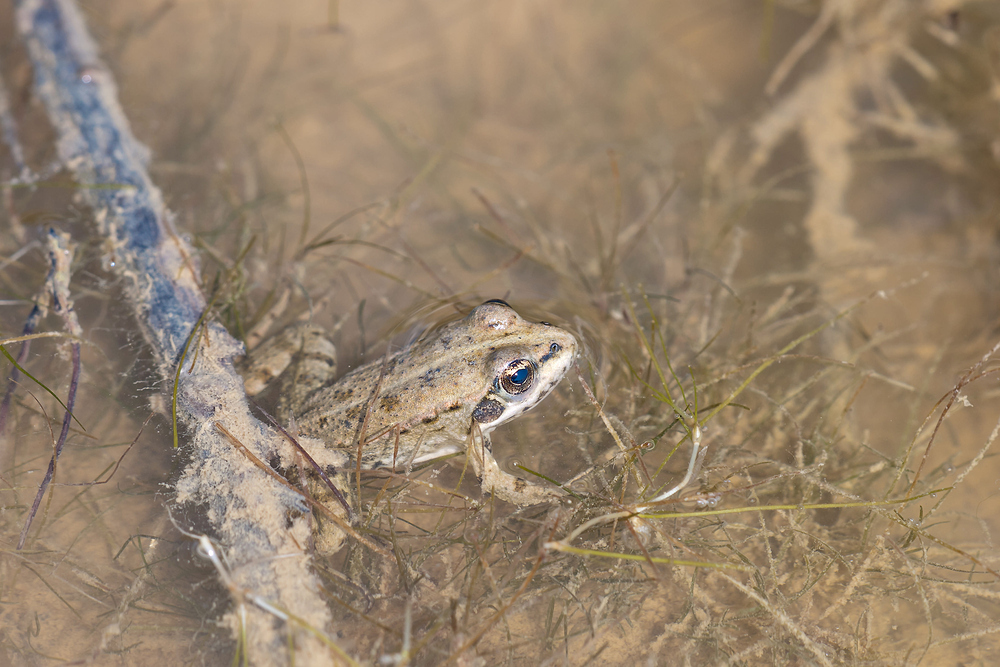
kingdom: Animalia
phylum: Chordata
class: Amphibia
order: Anura
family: Ranidae
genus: Pelophylax
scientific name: Pelophylax perezi
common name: Perez's frog
